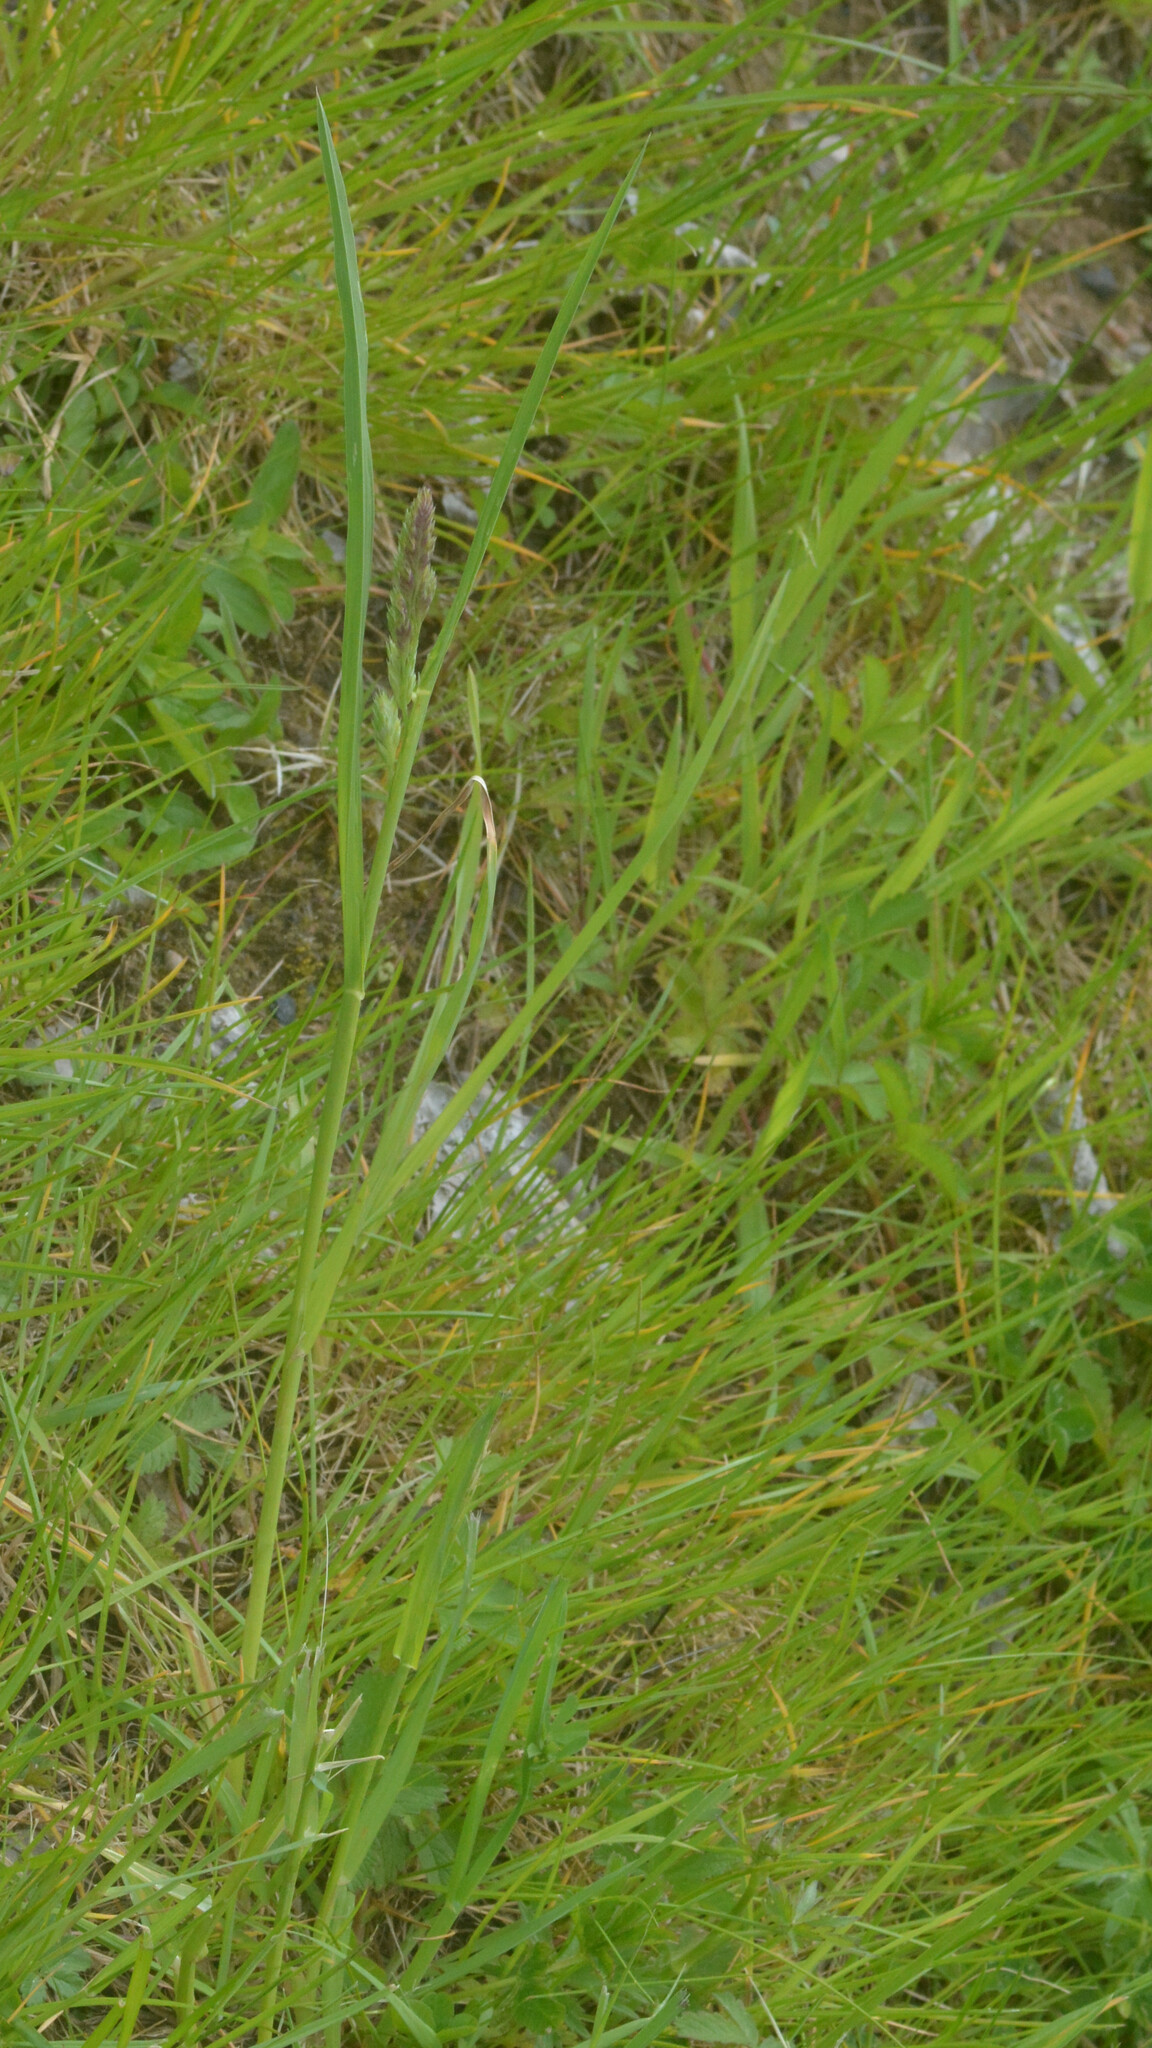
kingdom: Plantae
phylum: Tracheophyta
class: Liliopsida
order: Poales
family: Poaceae
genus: Dactylis
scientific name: Dactylis glomerata
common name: Orchardgrass
